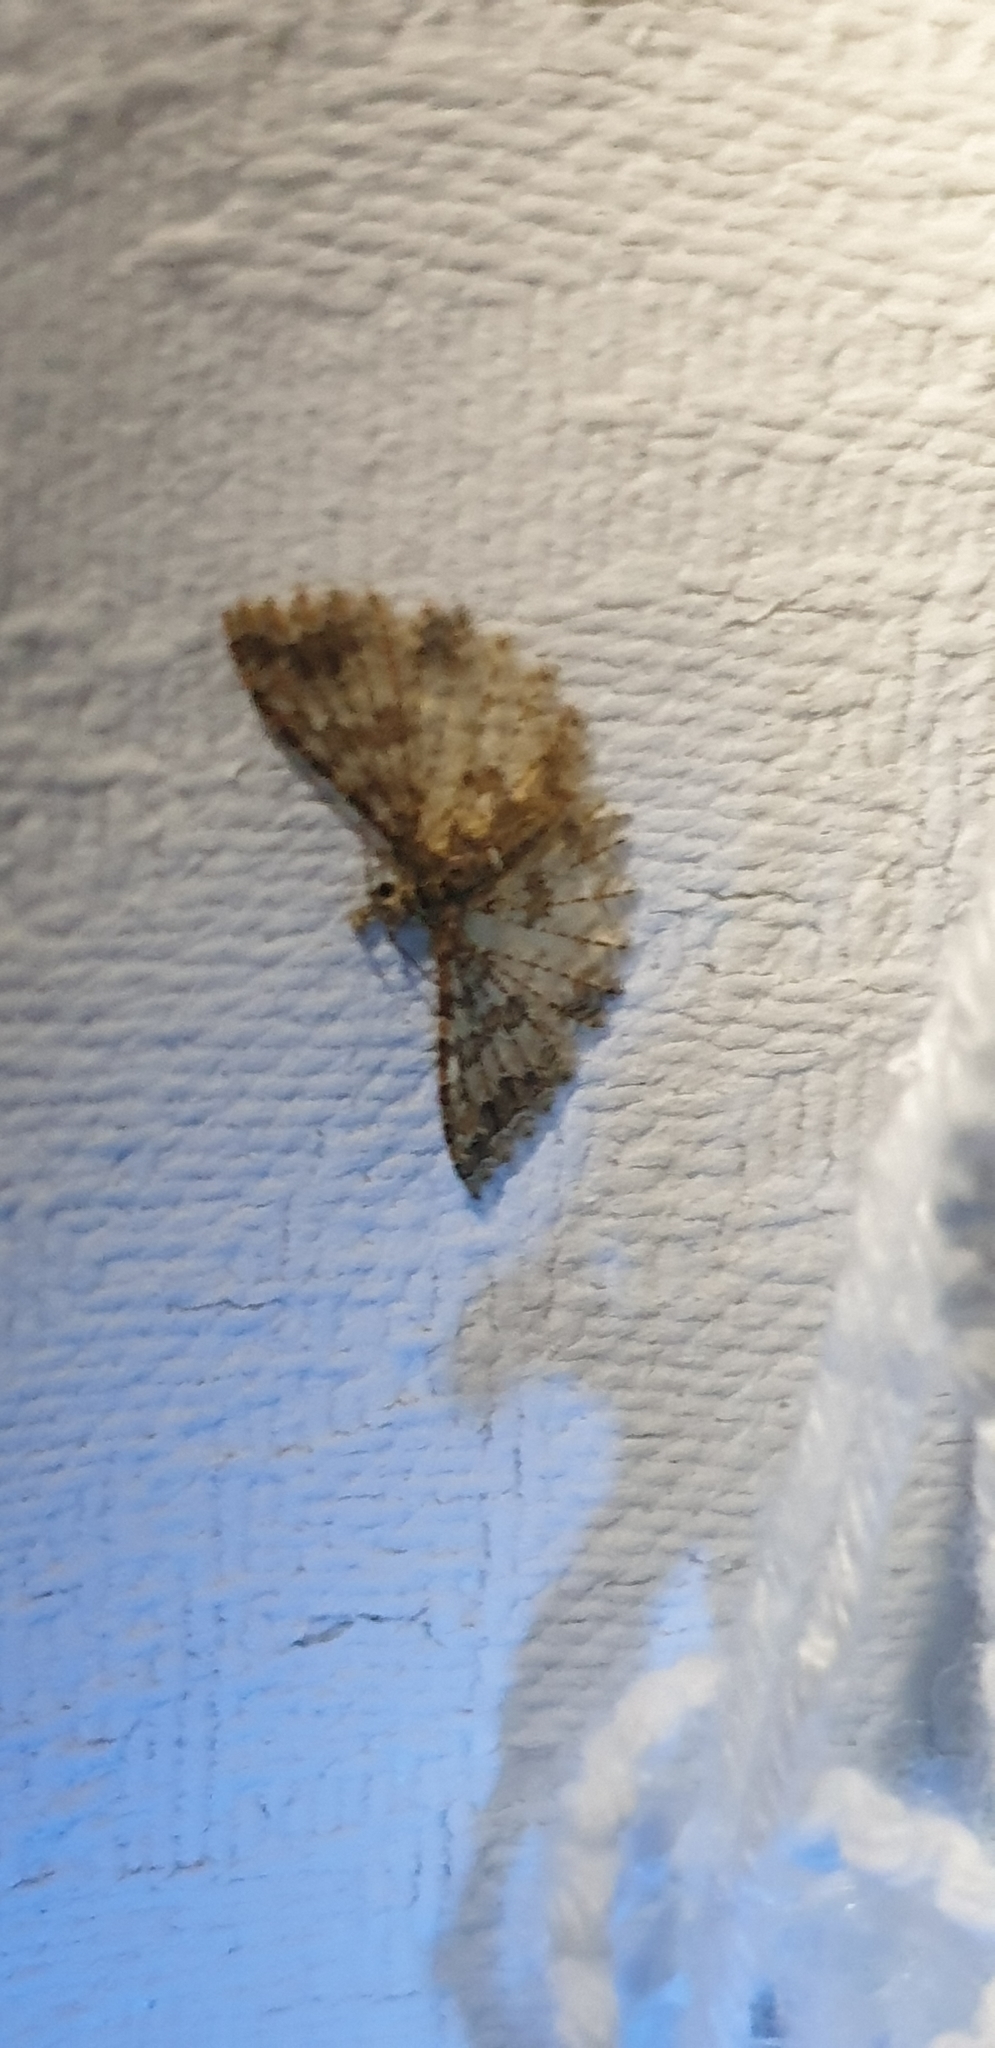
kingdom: Animalia
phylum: Arthropoda
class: Insecta
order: Lepidoptera
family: Alucitidae
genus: Alucita
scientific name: Alucita phricodes
